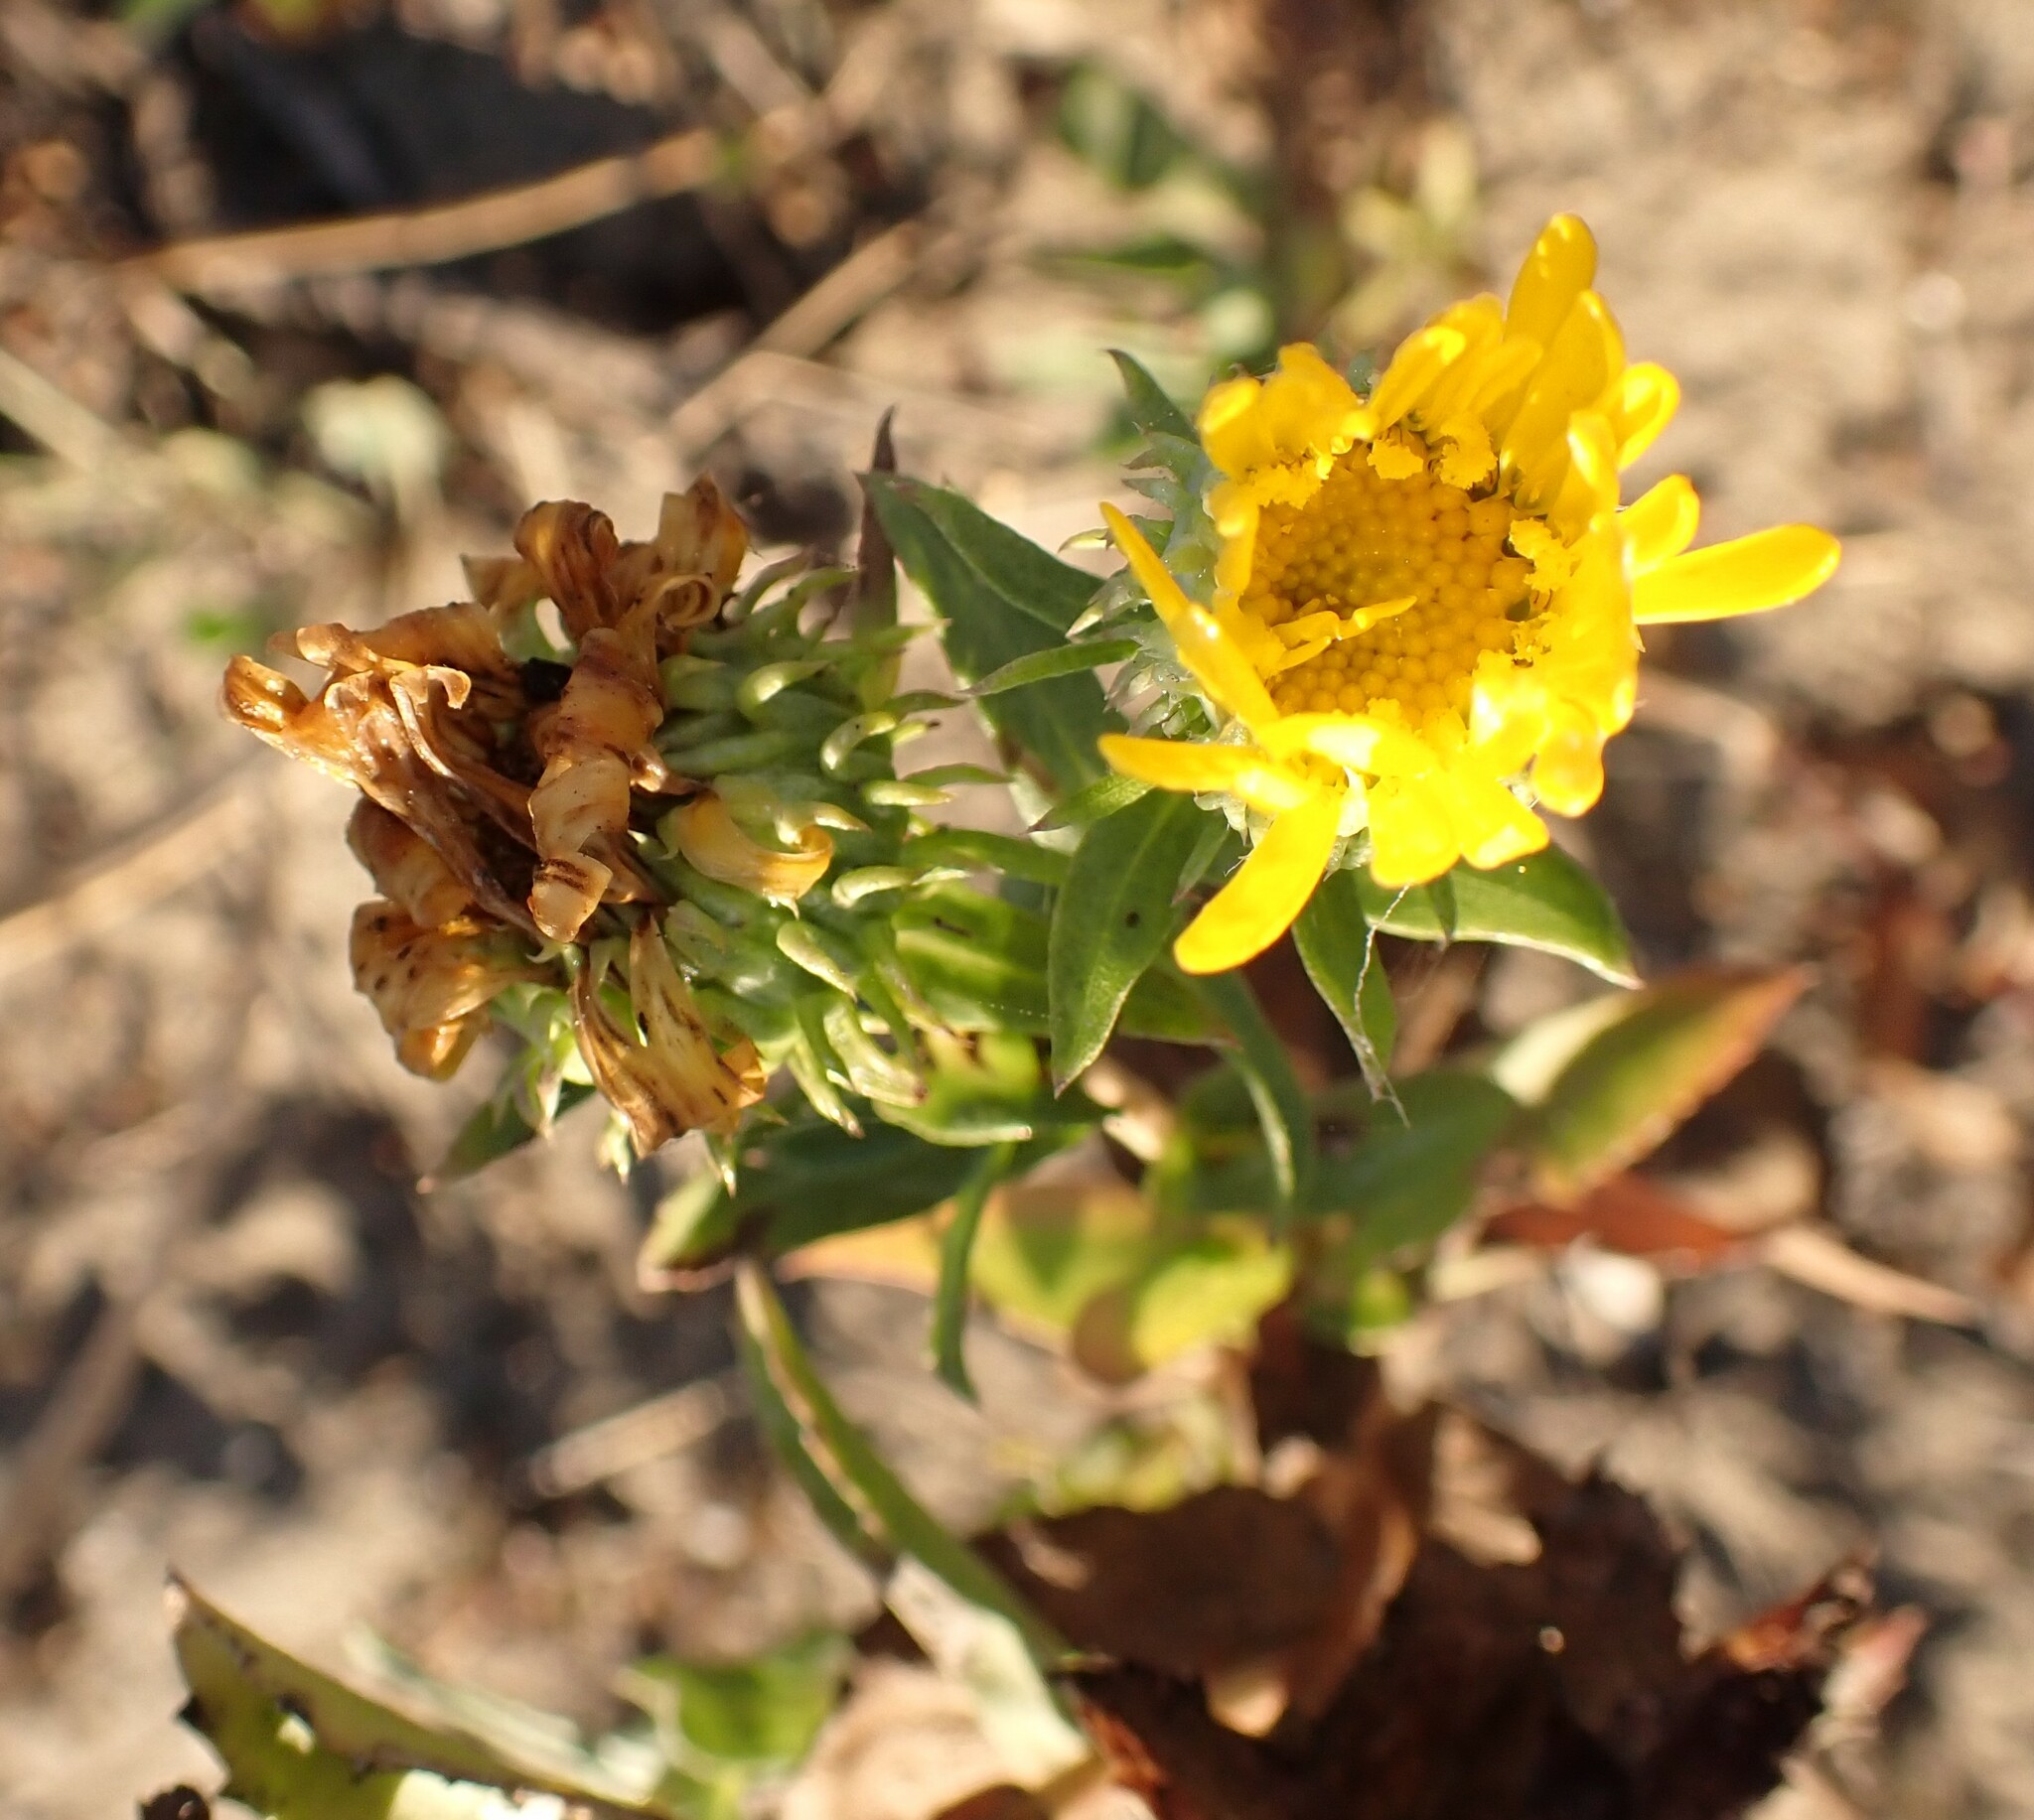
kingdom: Plantae
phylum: Tracheophyta
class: Magnoliopsida
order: Asterales
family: Asteraceae
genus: Grindelia
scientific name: Grindelia hirsutula
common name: Hairy gumweed
